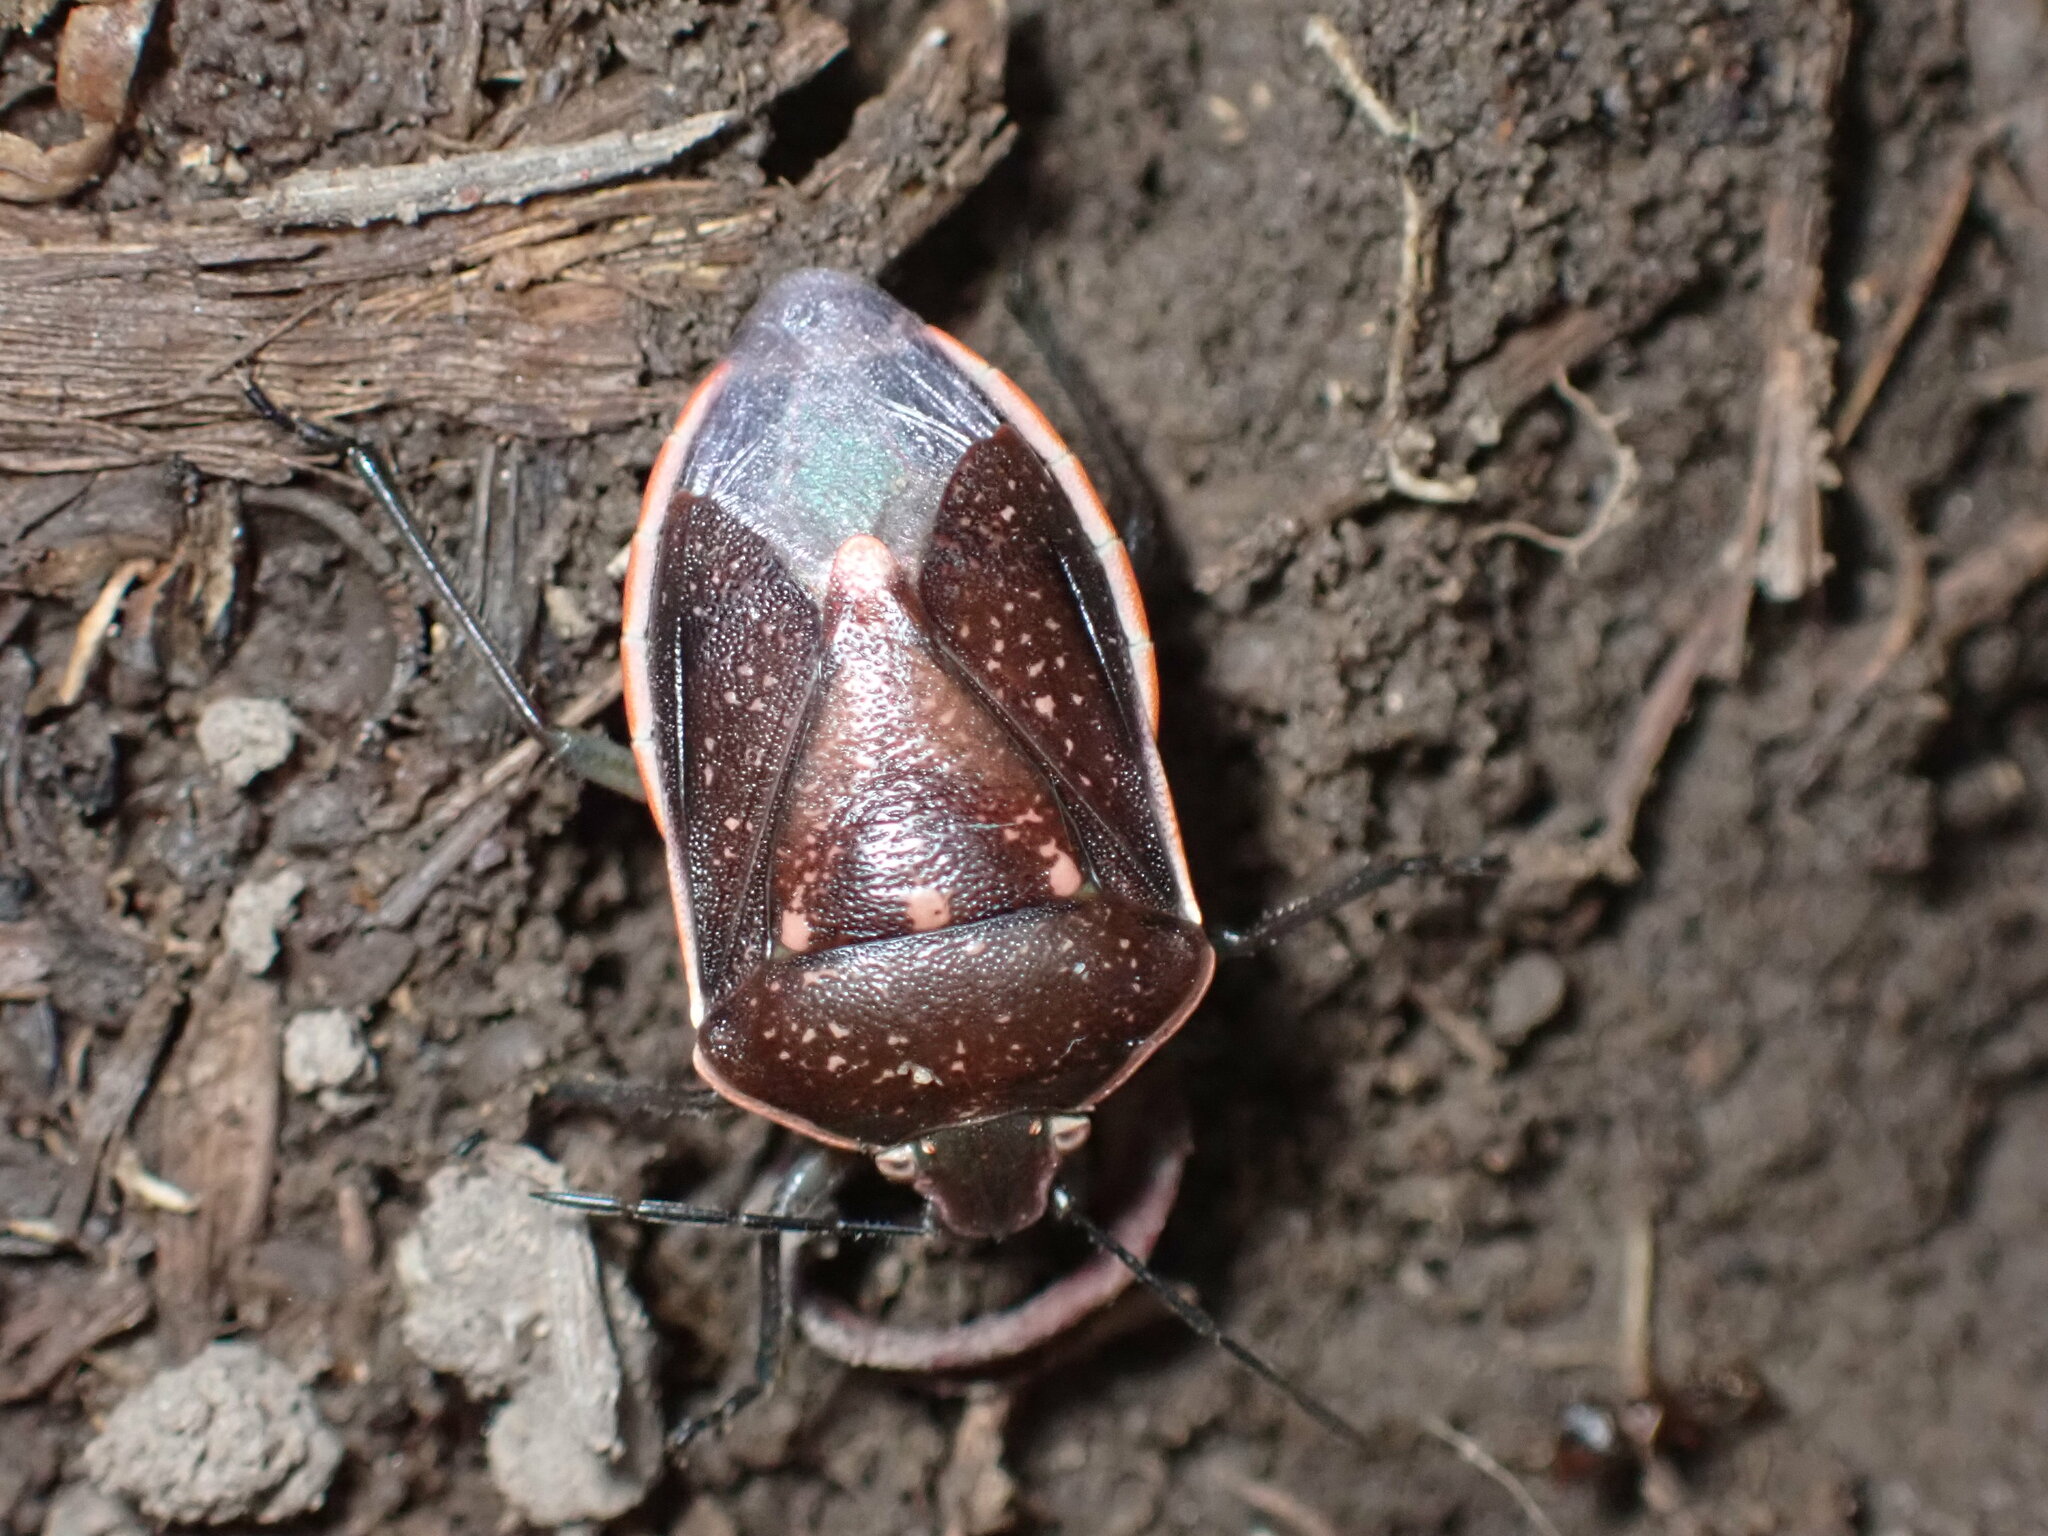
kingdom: Animalia
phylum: Arthropoda
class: Insecta
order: Hemiptera
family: Pentatomidae
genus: Chlorochroa
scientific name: Chlorochroa sayi
